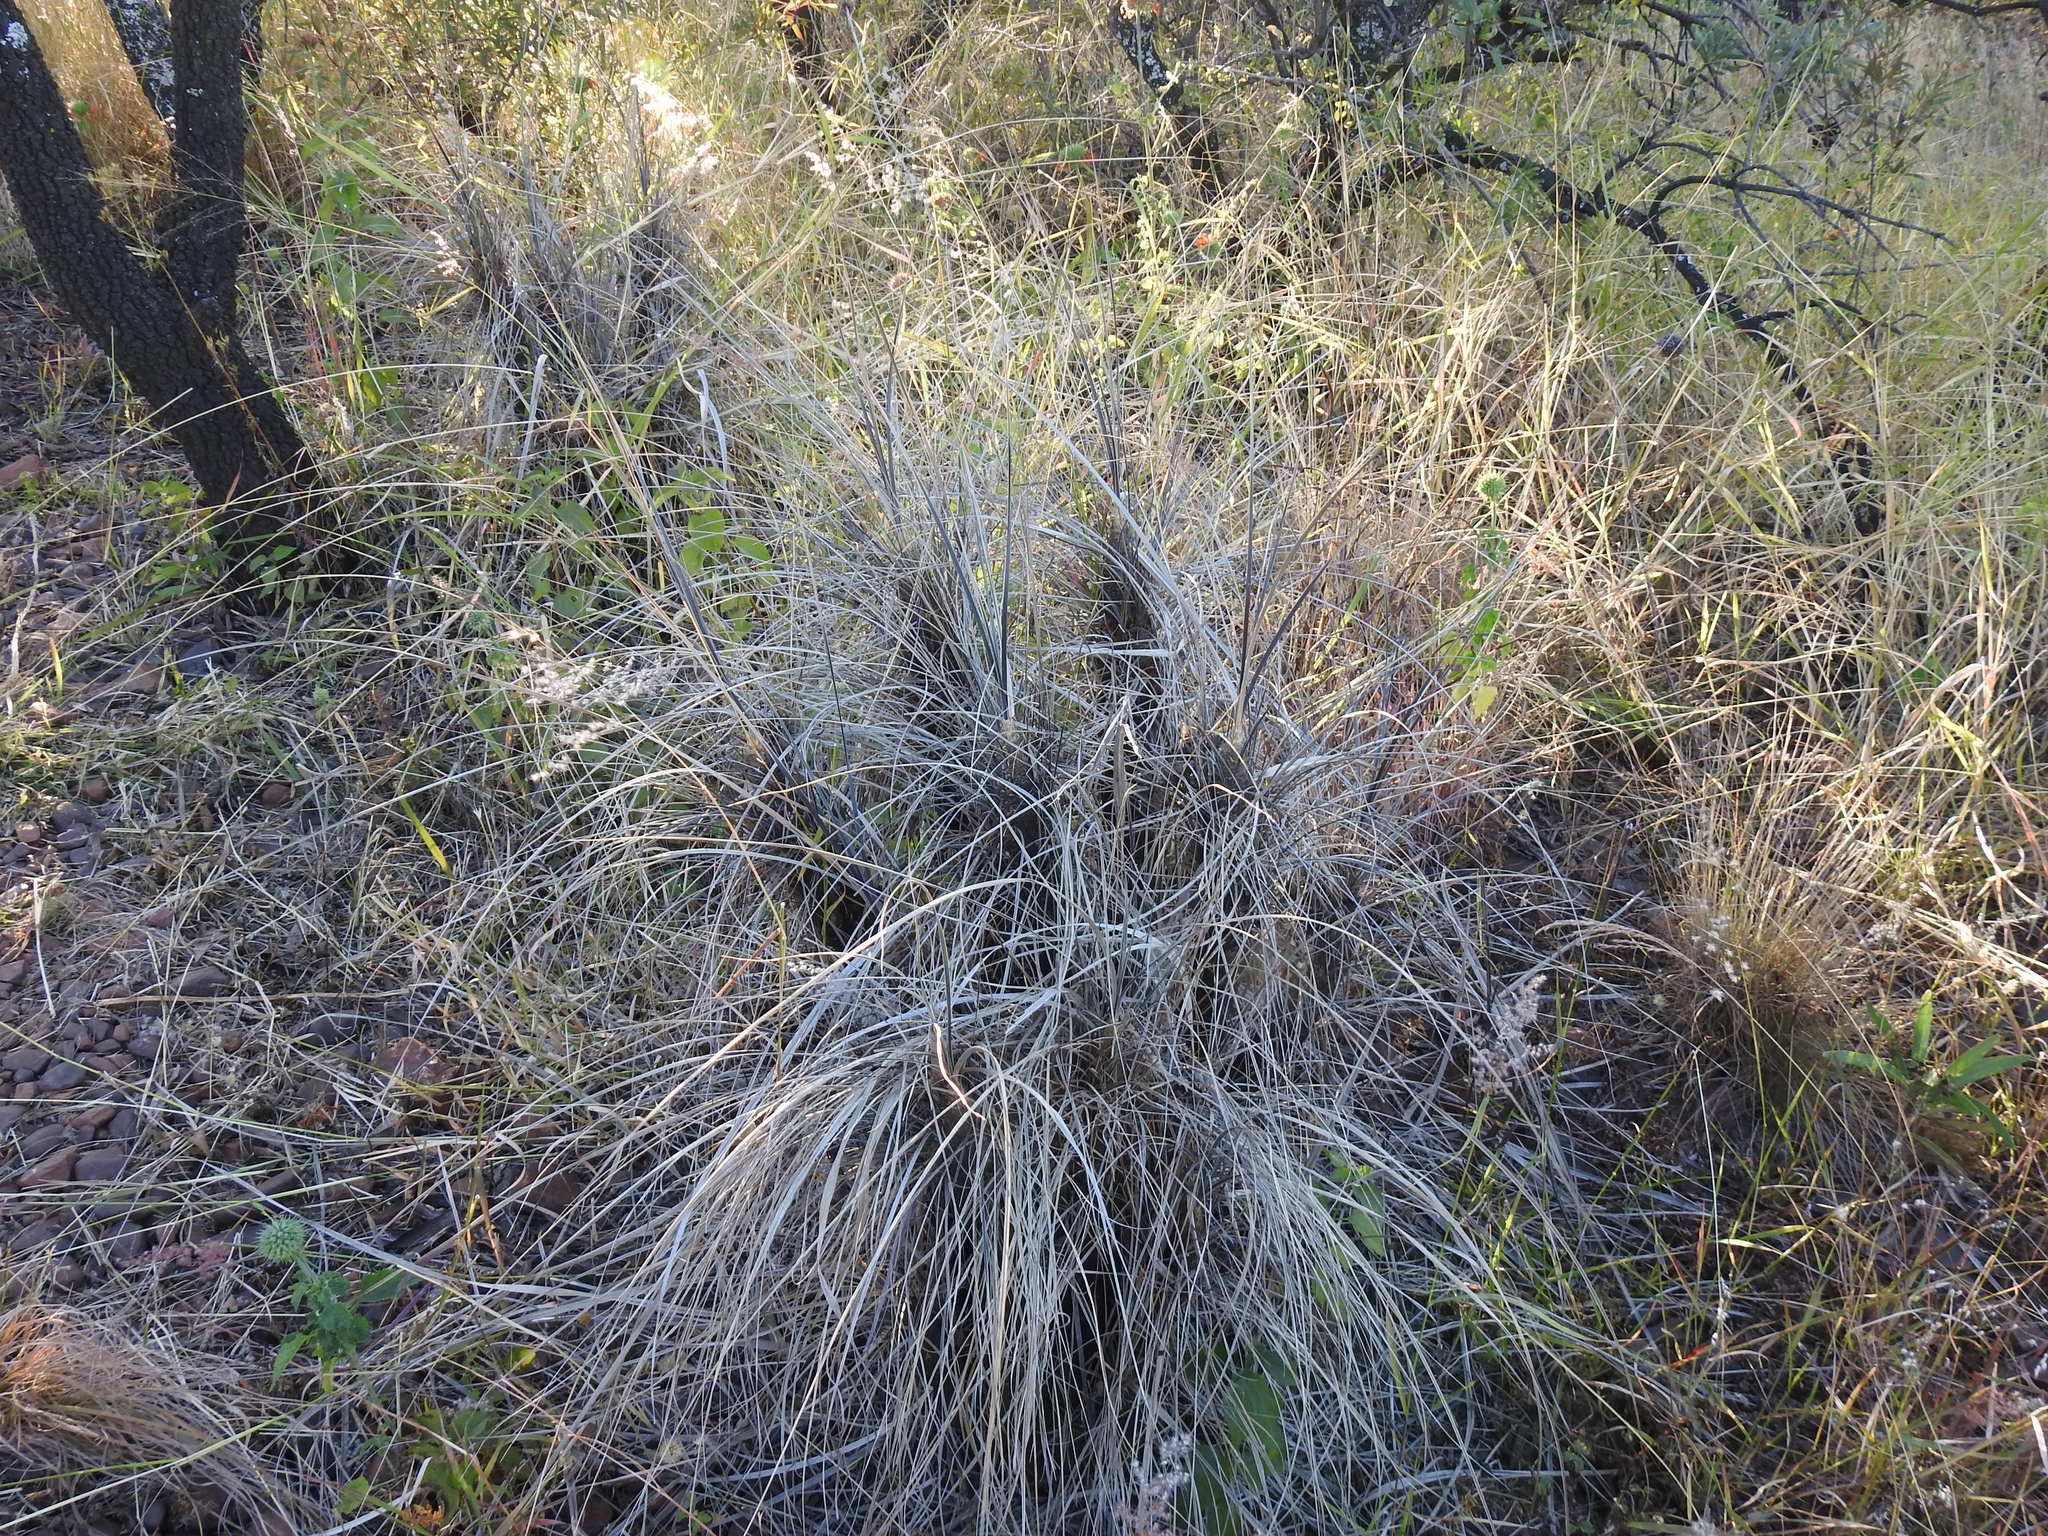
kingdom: Plantae
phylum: Tracheophyta
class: Liliopsida
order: Pandanales
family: Velloziaceae
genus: Xerophyta
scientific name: Xerophyta retinervis
